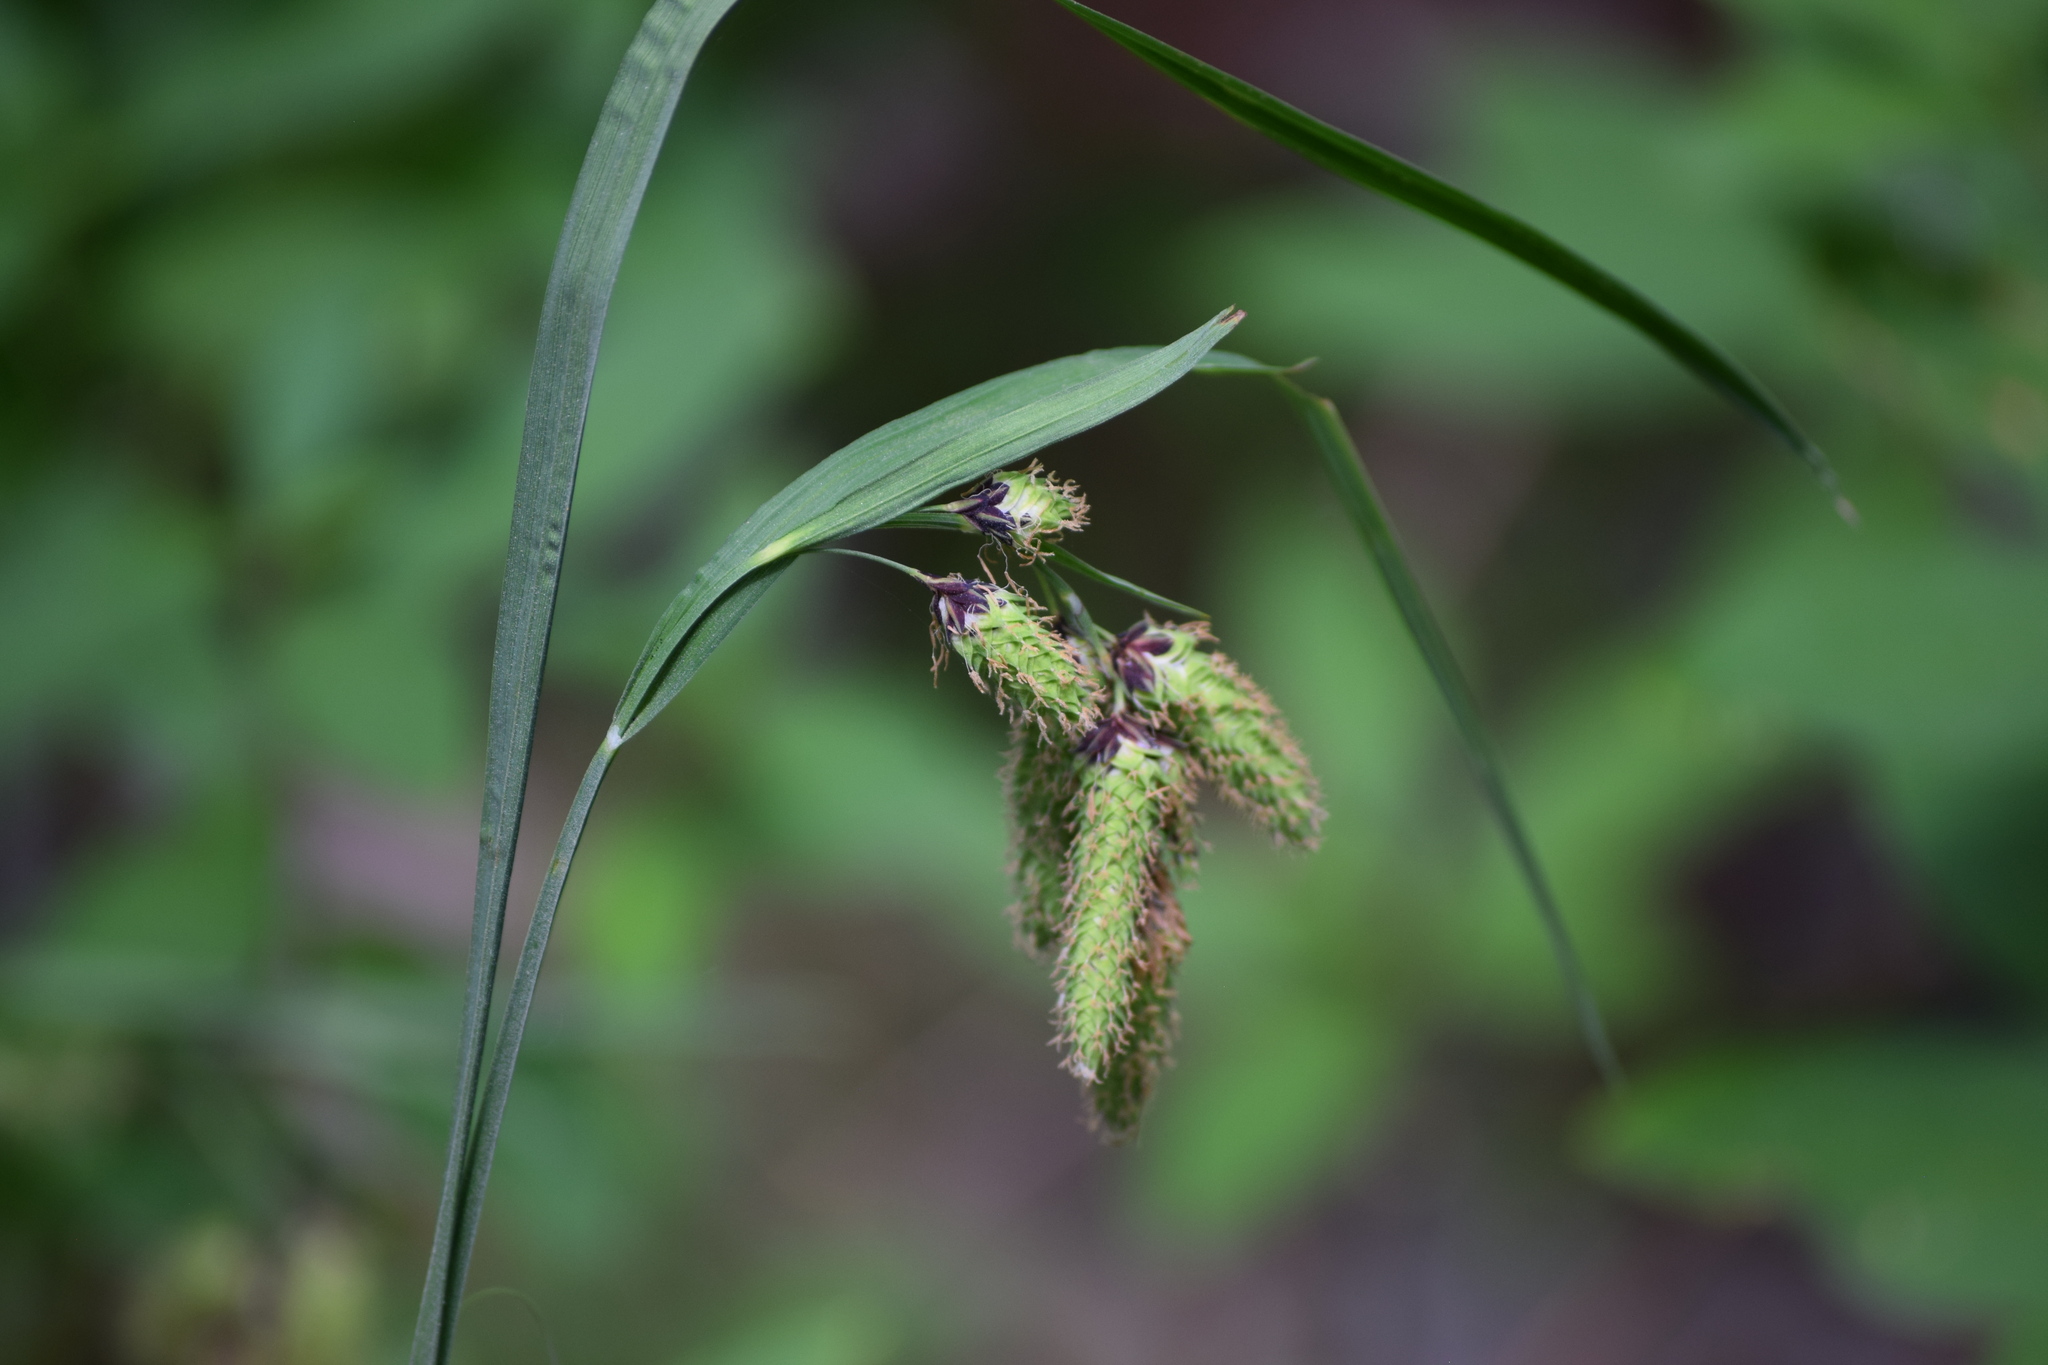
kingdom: Plantae
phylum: Tracheophyta
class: Liliopsida
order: Poales
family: Cyperaceae
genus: Carex
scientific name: Carex mertensii
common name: Mertens' sedge
